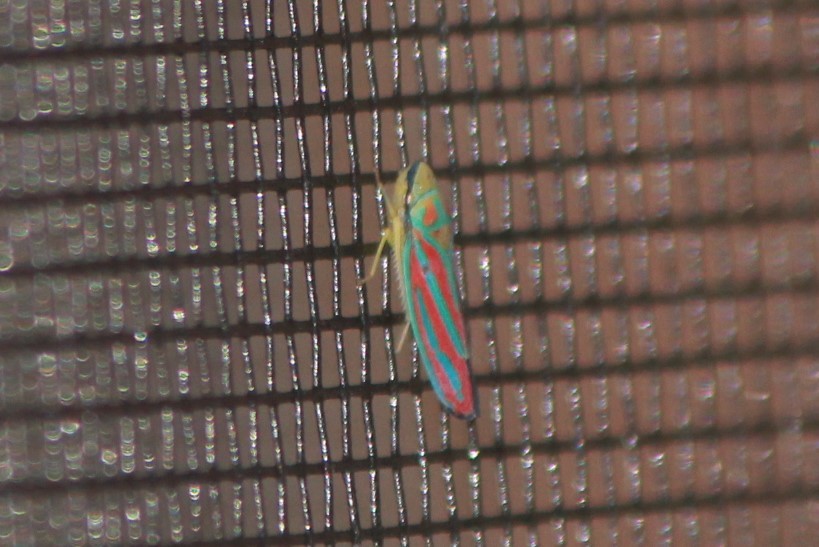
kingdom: Animalia
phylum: Arthropoda
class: Insecta
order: Hemiptera
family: Cicadellidae
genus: Graphocephala
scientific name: Graphocephala coccinea
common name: Candy-striped leafhopper
